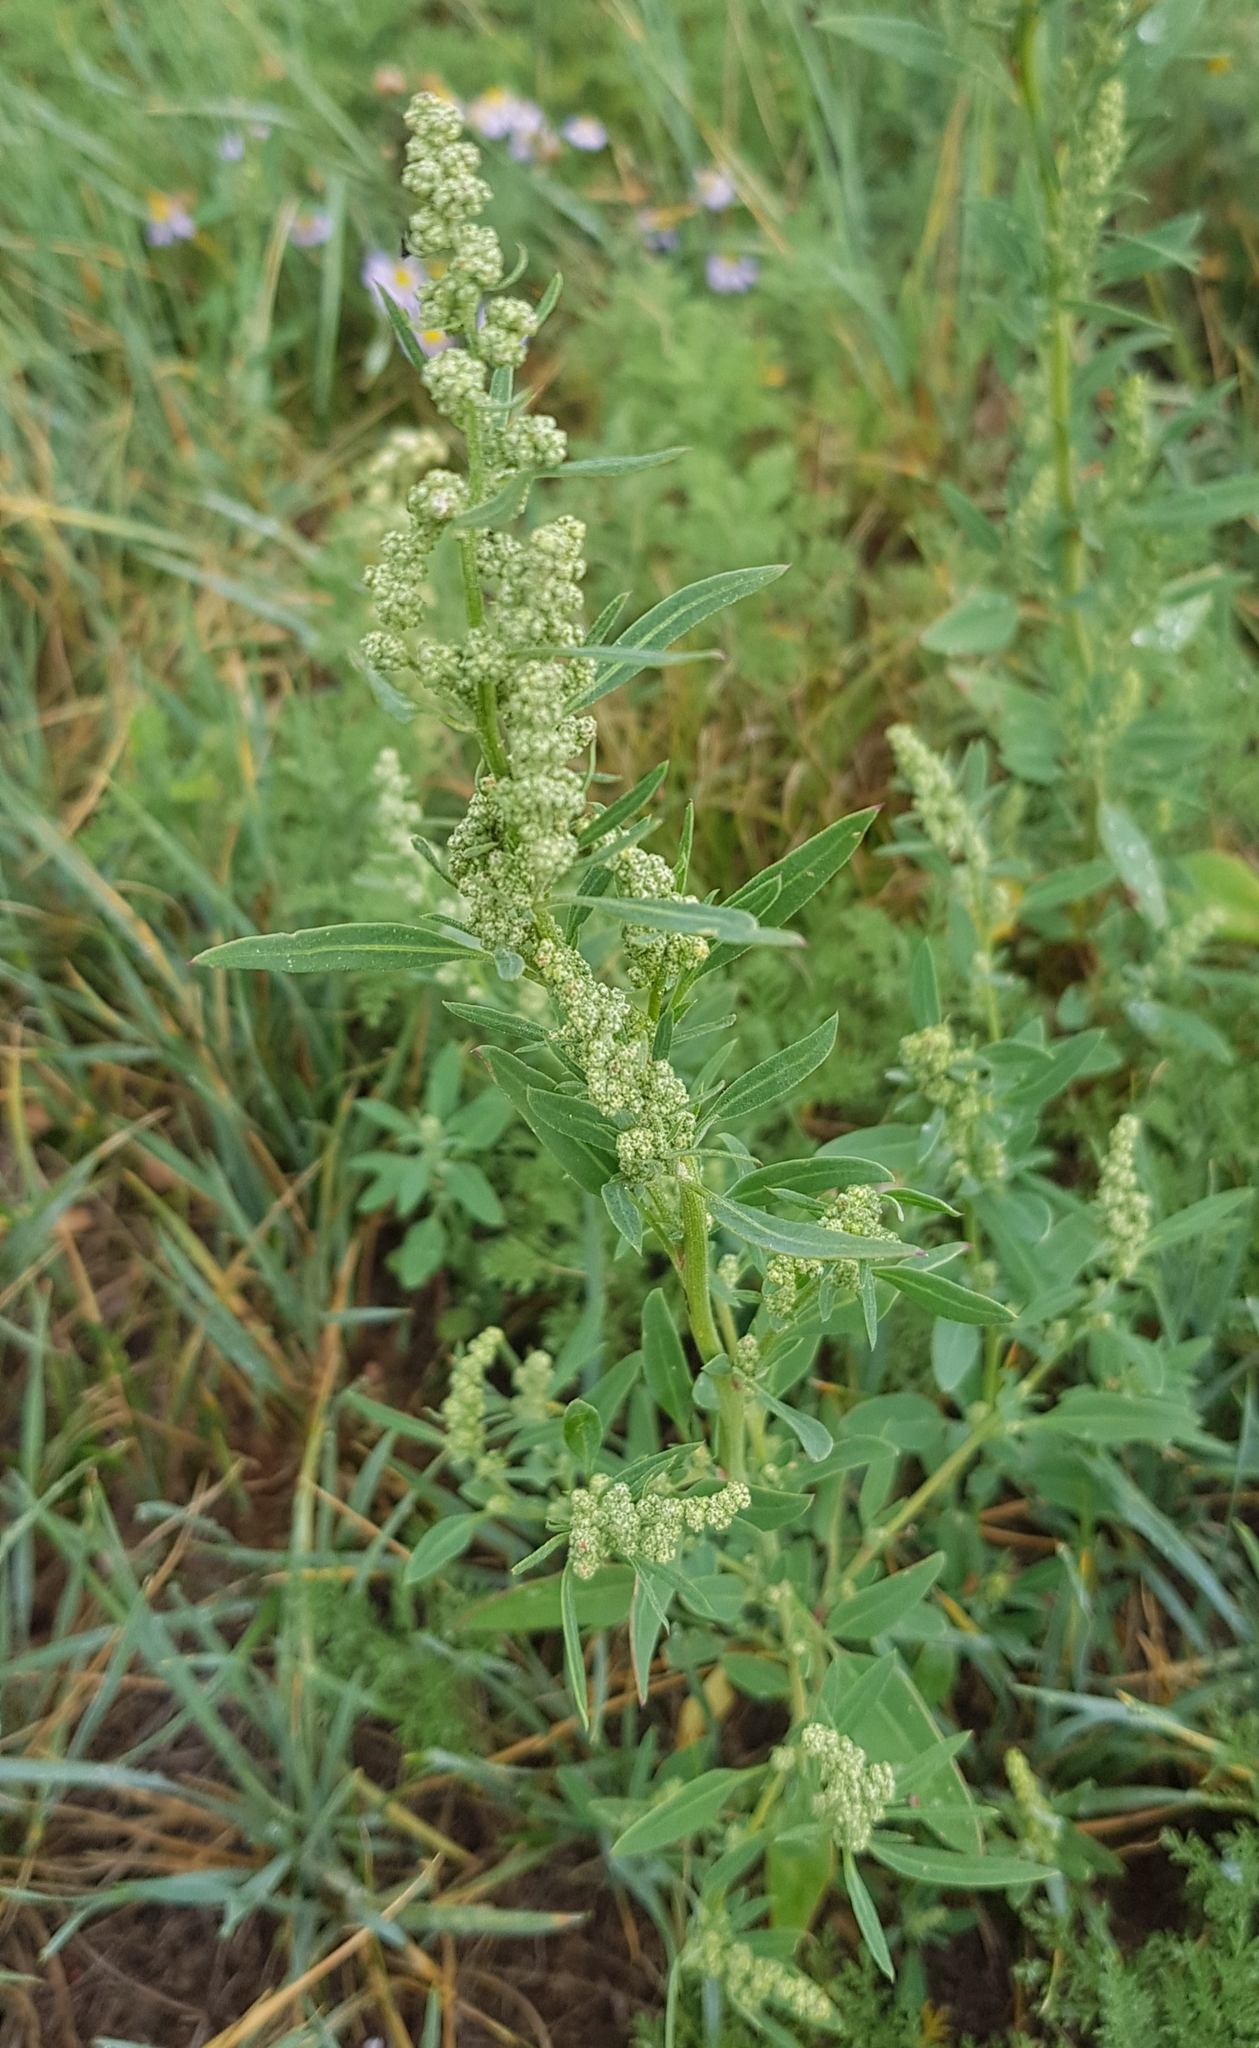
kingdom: Plantae
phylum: Tracheophyta
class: Magnoliopsida
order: Caryophyllales
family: Amaranthaceae
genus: Chenopodium
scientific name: Chenopodium acuminatum
